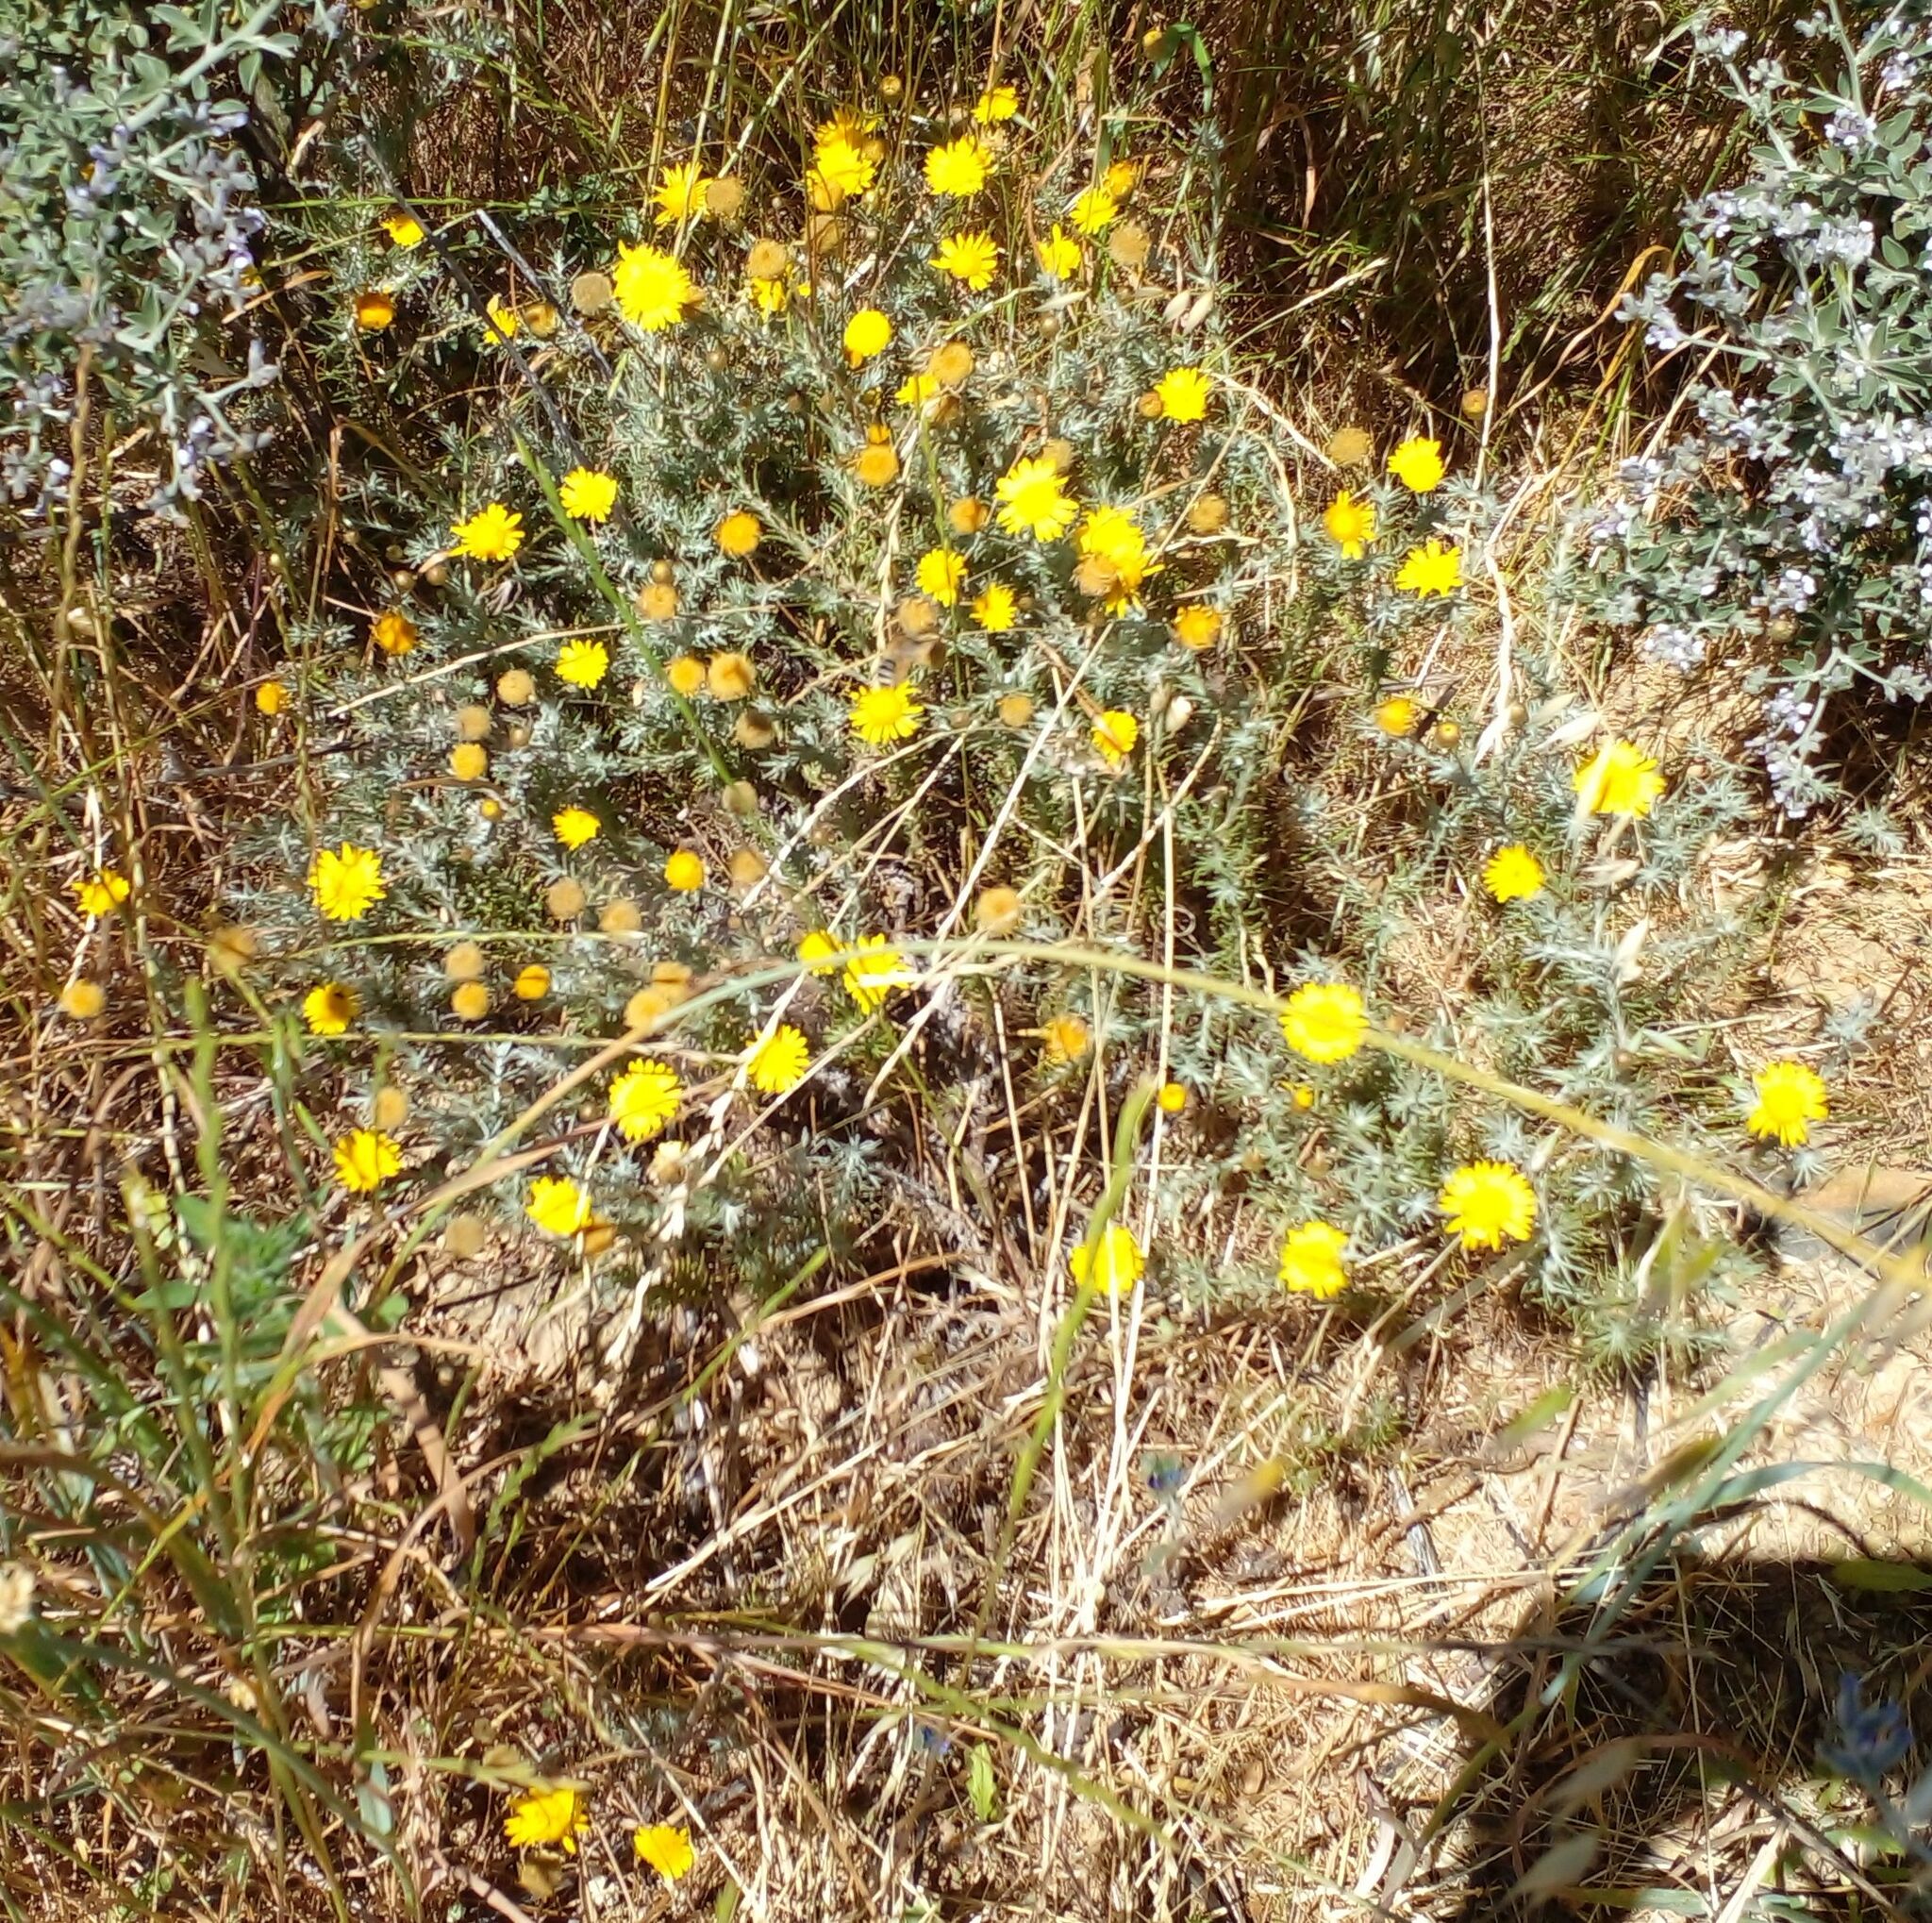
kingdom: Plantae
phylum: Tracheophyta
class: Magnoliopsida
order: Asterales
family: Asteraceae
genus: Leysera
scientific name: Leysera gnaphalodes
